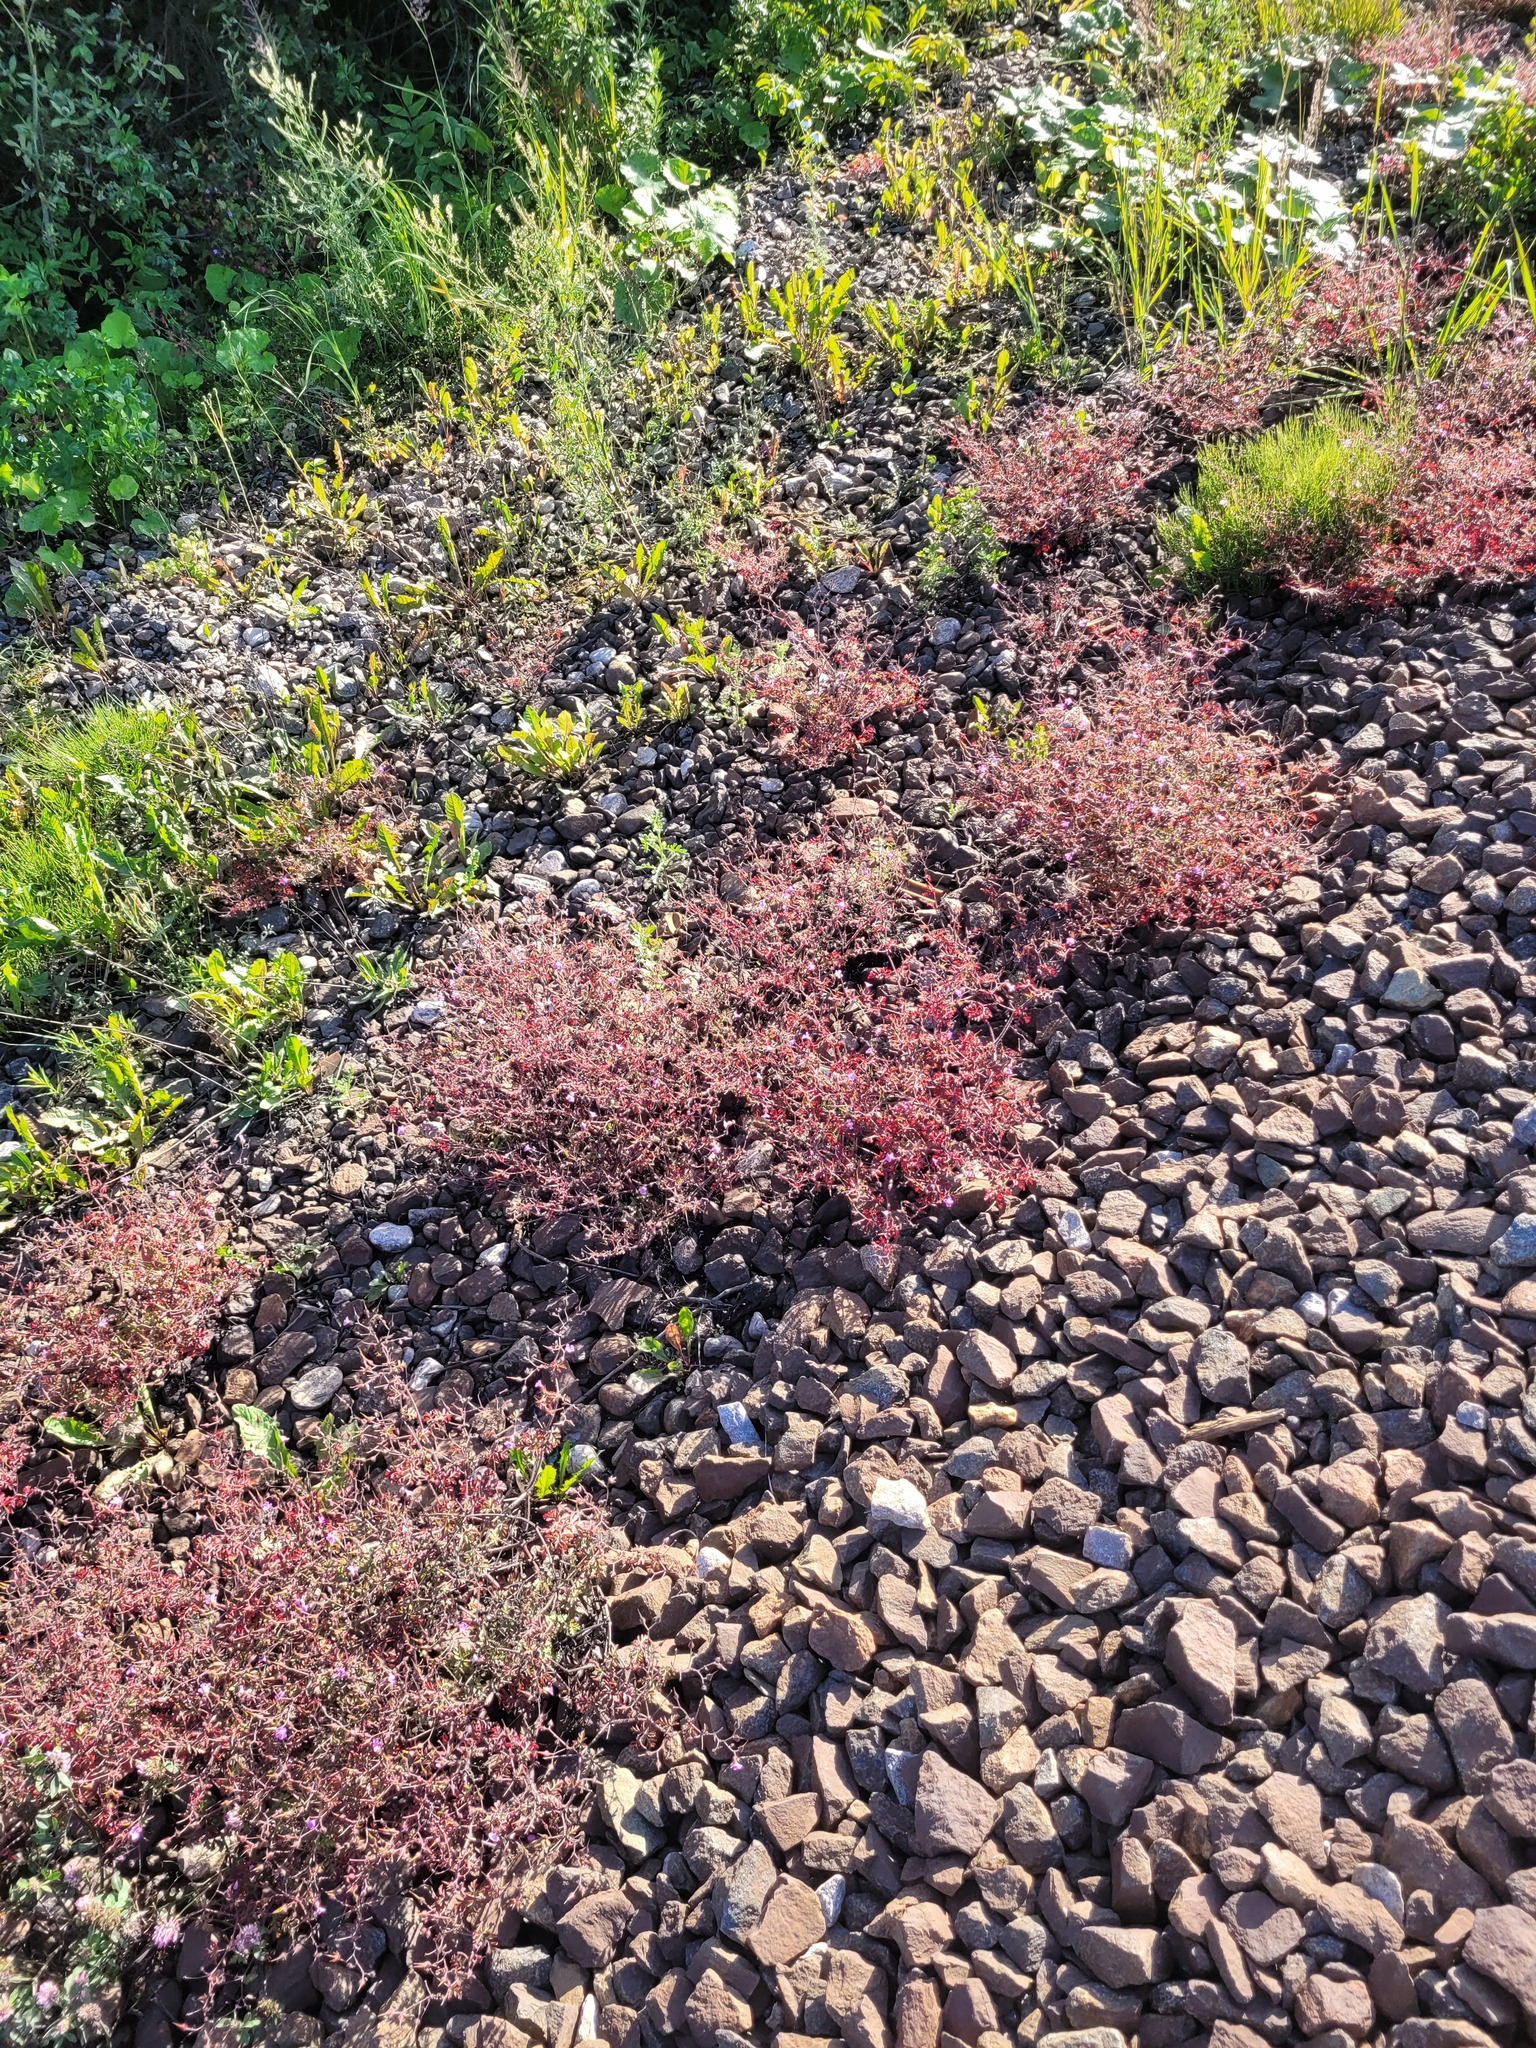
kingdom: Plantae
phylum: Tracheophyta
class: Magnoliopsida
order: Geraniales
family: Geraniaceae
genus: Geranium
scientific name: Geranium robertianum
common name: Herb-robert
